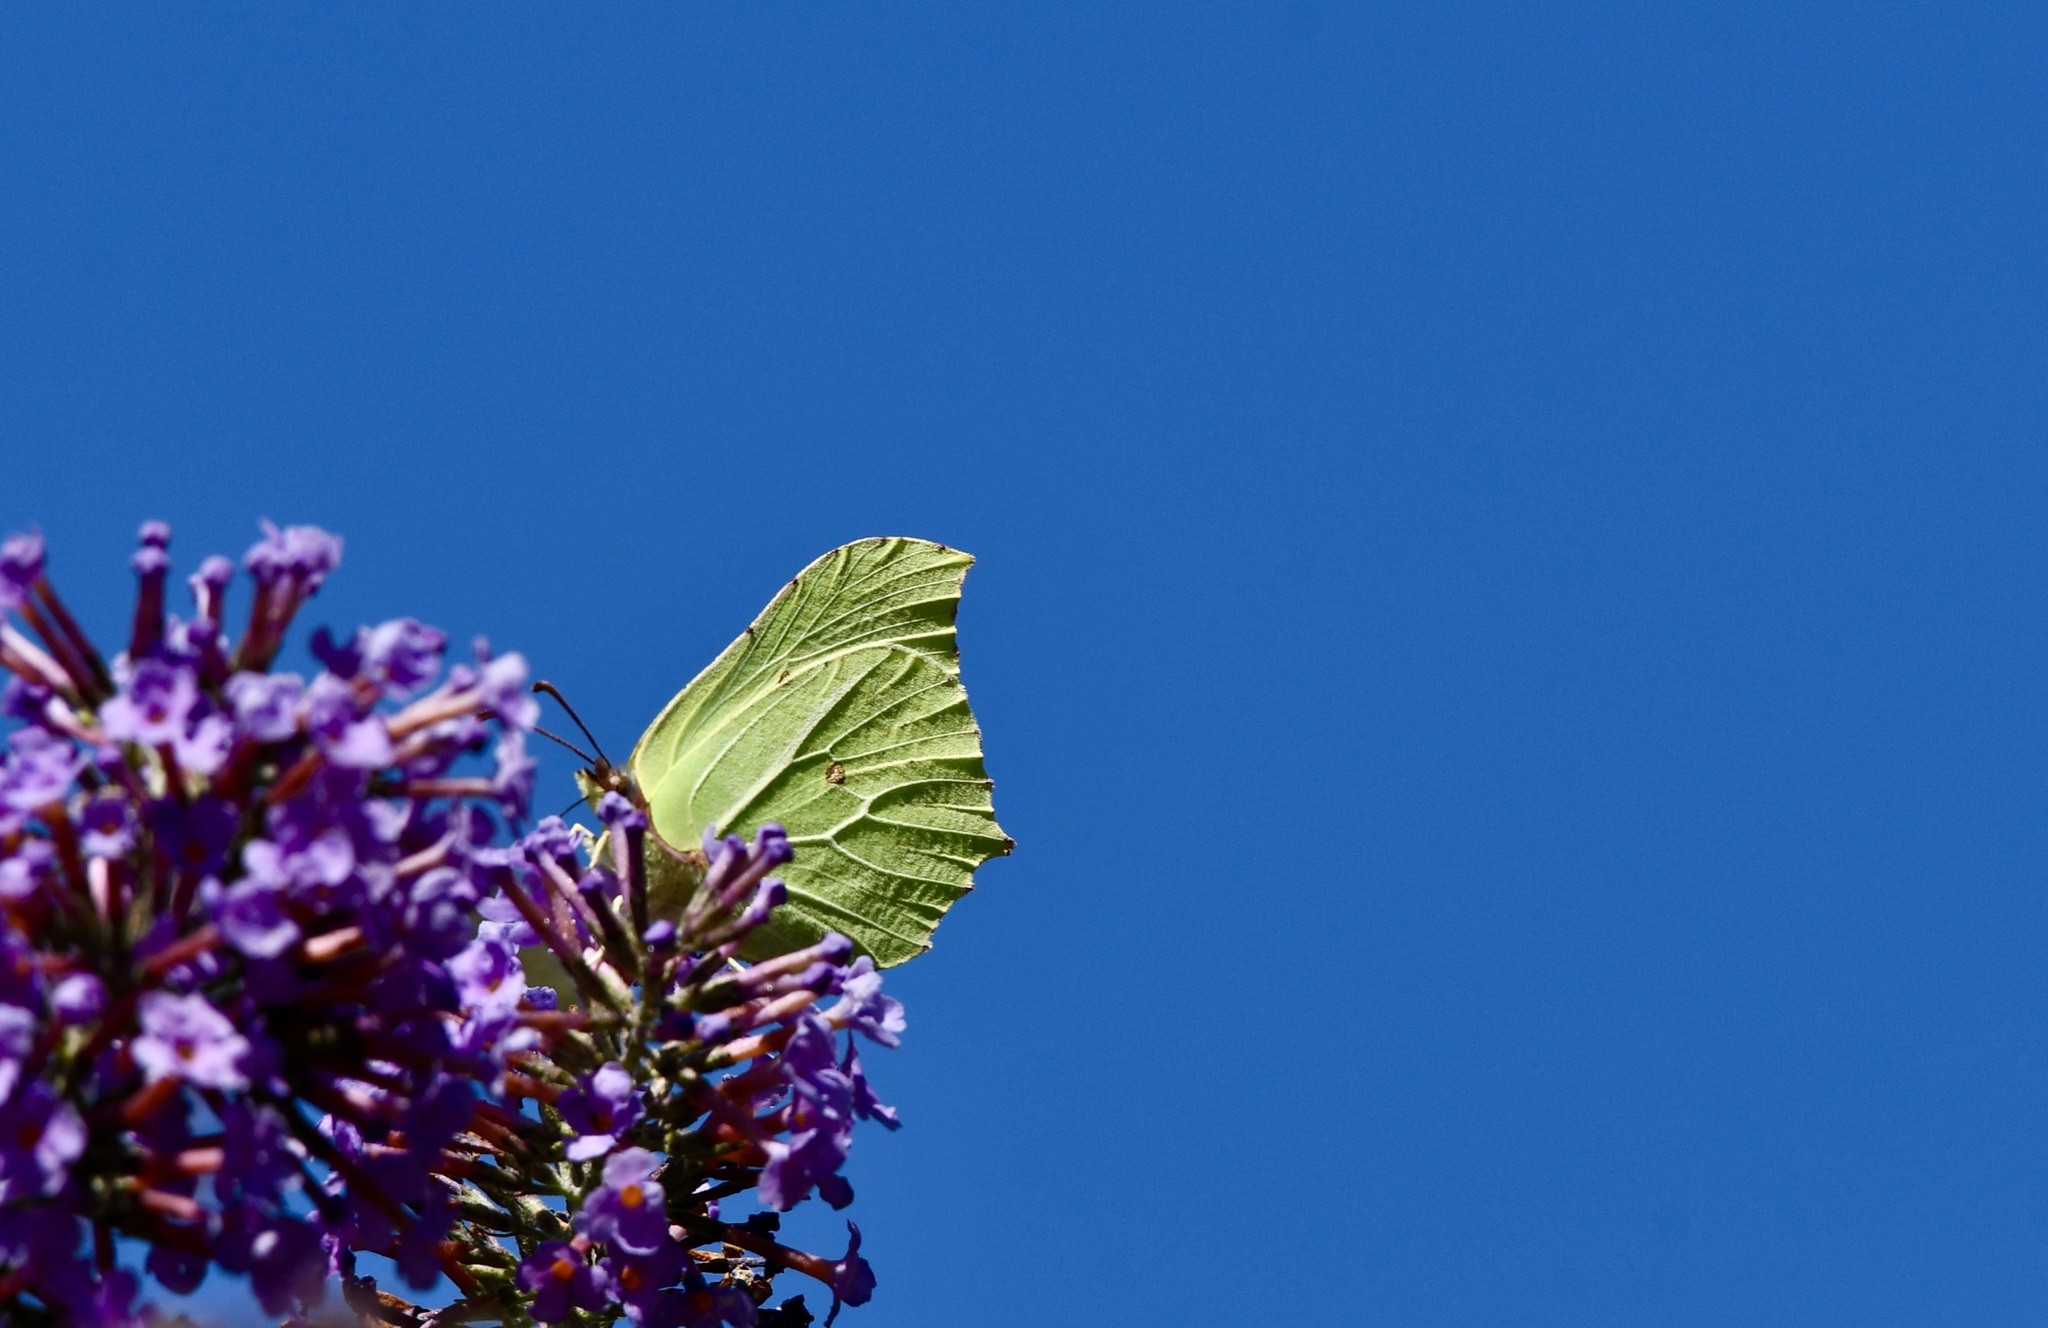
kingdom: Animalia
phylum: Arthropoda
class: Insecta
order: Lepidoptera
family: Pieridae
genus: Gonepteryx
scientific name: Gonepteryx rhamni
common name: Brimstone
